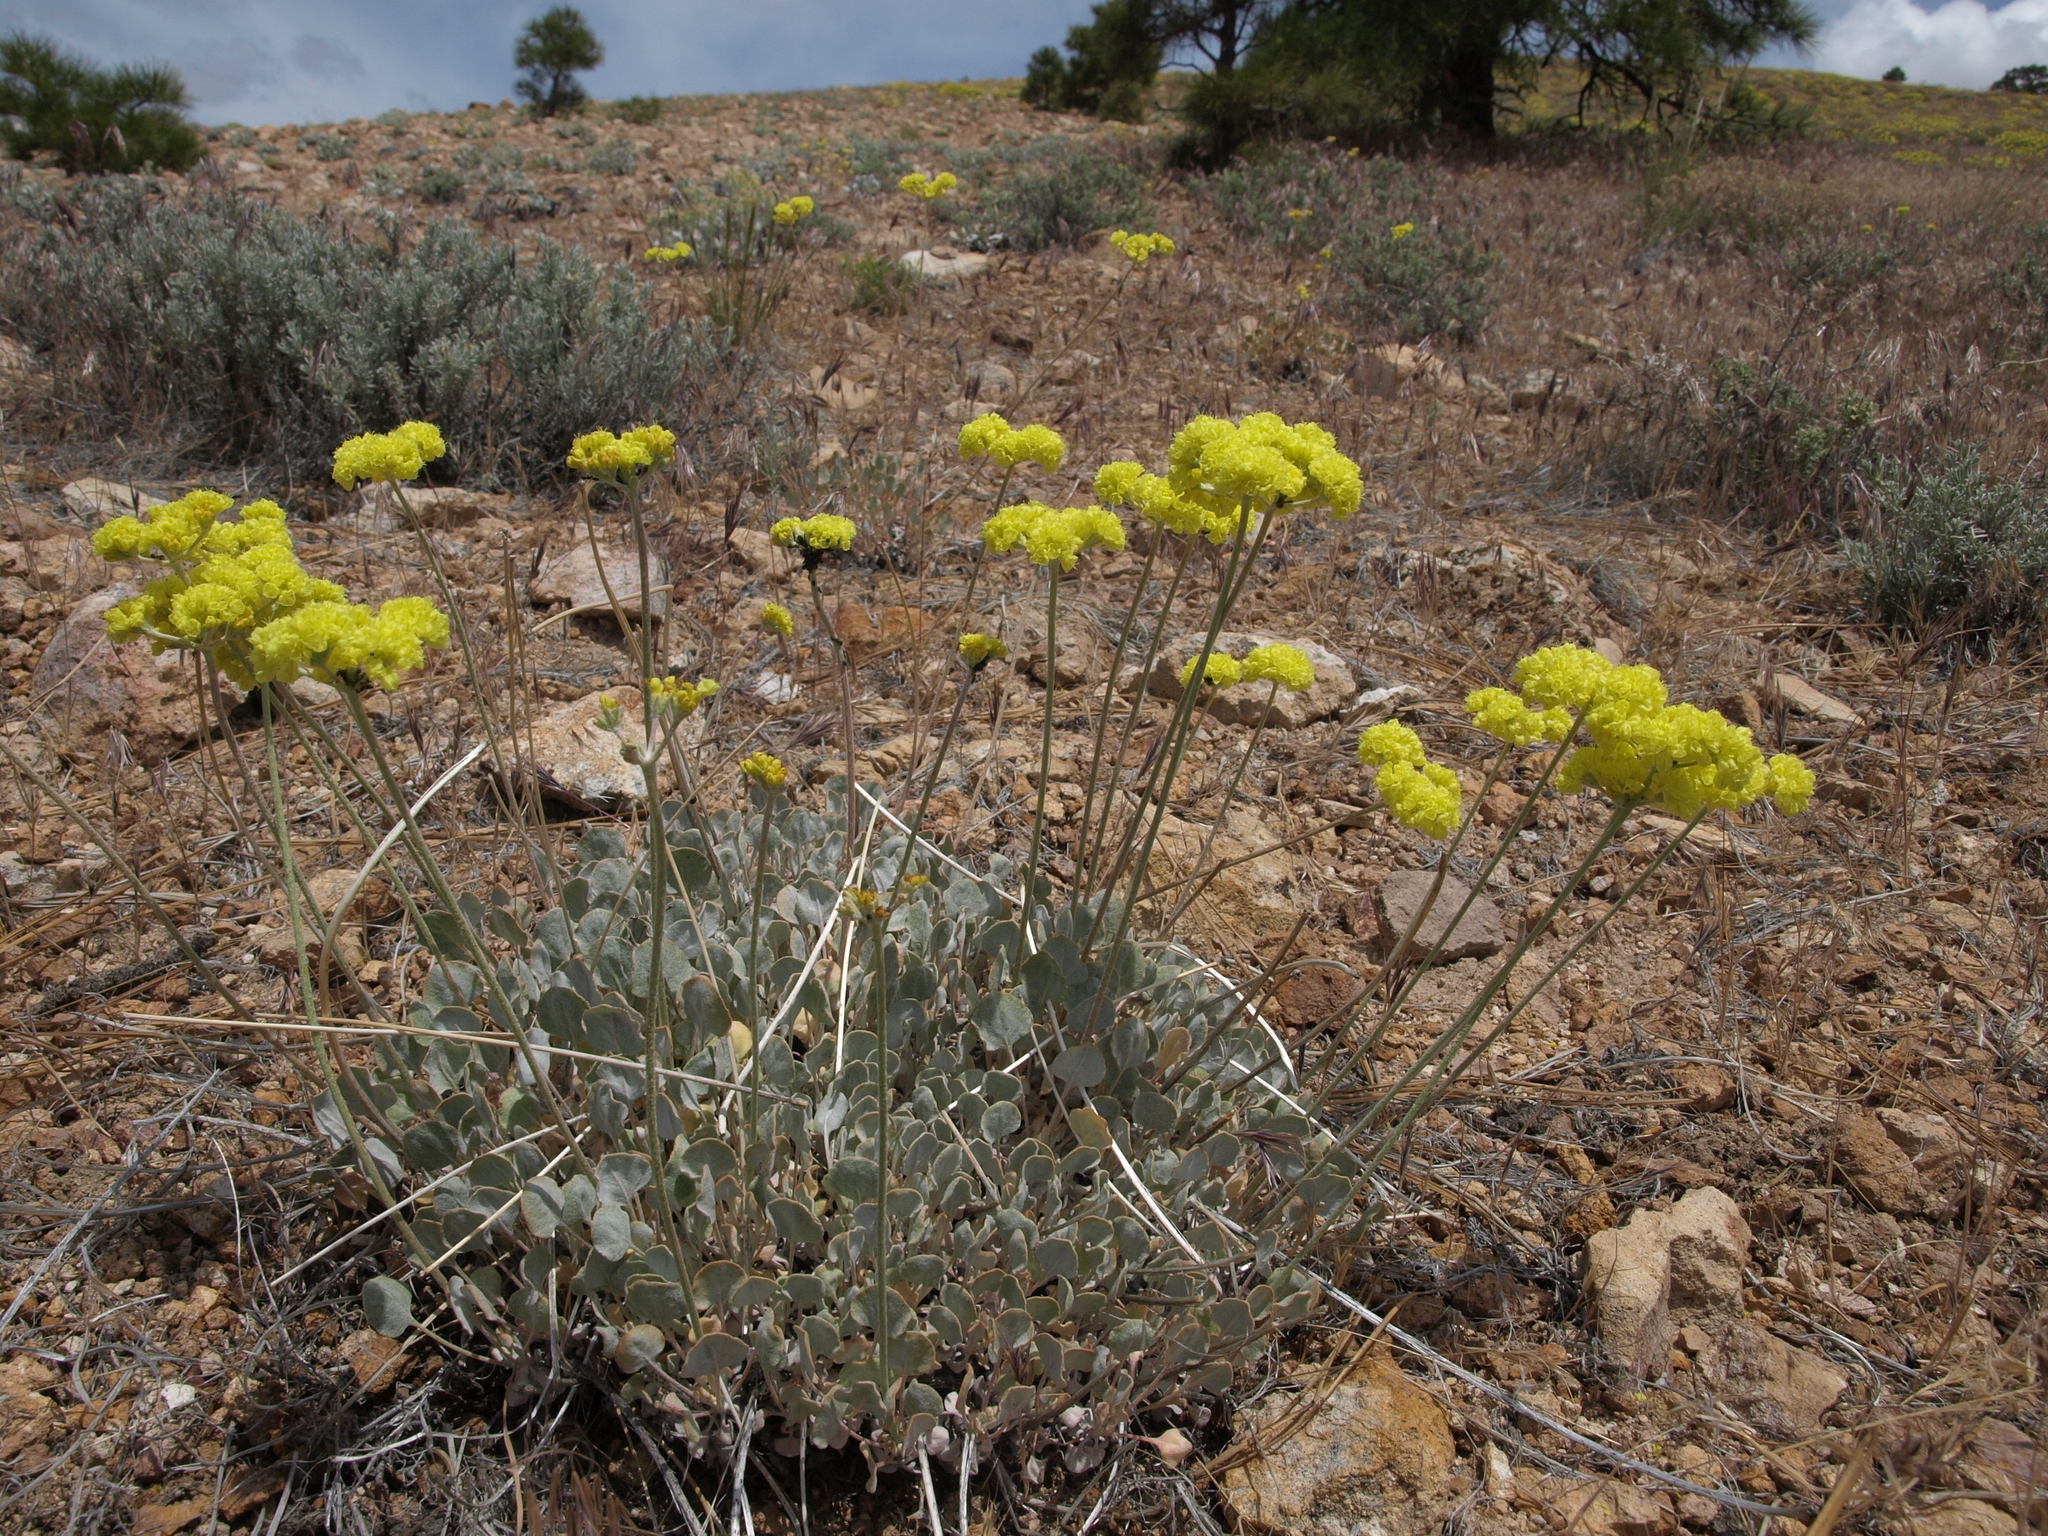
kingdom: Plantae
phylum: Tracheophyta
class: Magnoliopsida
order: Caryophyllales
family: Polygonaceae
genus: Eriogonum
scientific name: Eriogonum strictum
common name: Blue mountain buckwheat
